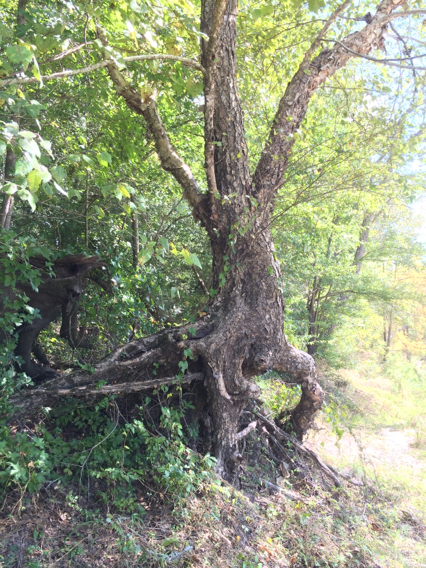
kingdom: Plantae
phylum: Tracheophyta
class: Magnoliopsida
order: Fagales
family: Betulaceae
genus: Betula
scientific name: Betula nigra
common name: Black birch
